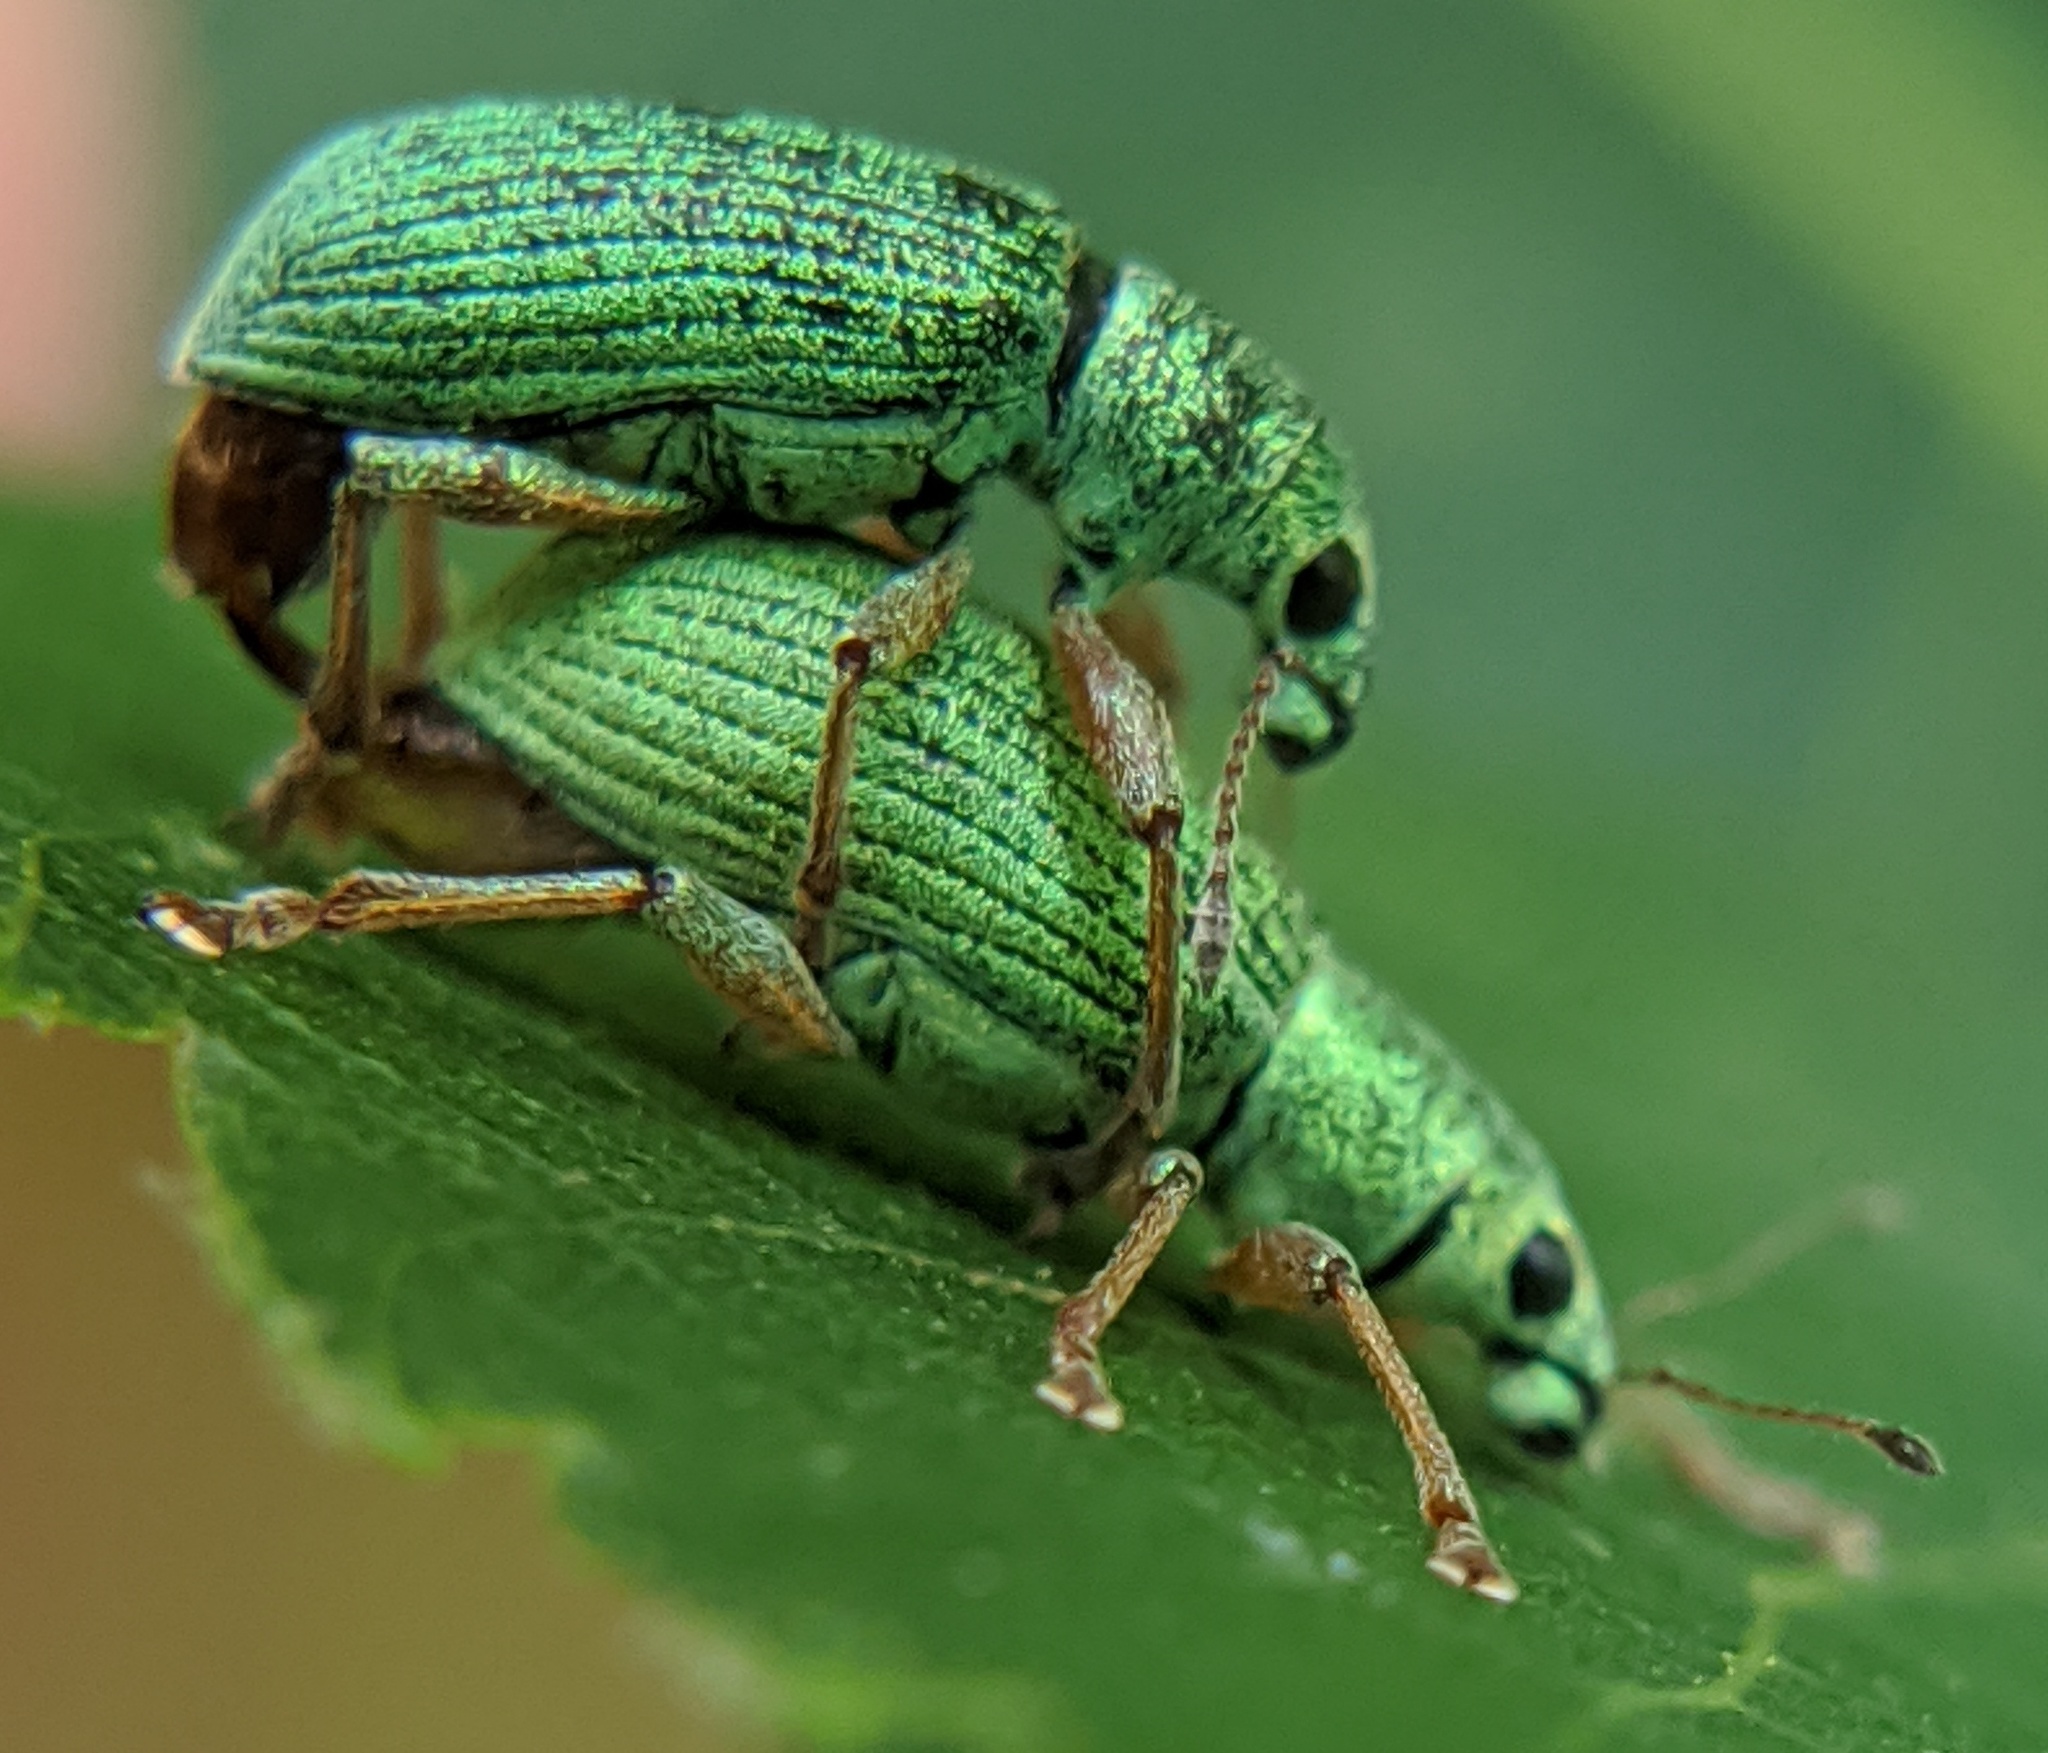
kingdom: Animalia
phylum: Arthropoda
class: Insecta
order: Coleoptera
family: Curculionidae
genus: Polydrusus
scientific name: Polydrusus formosus
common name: Weevil
